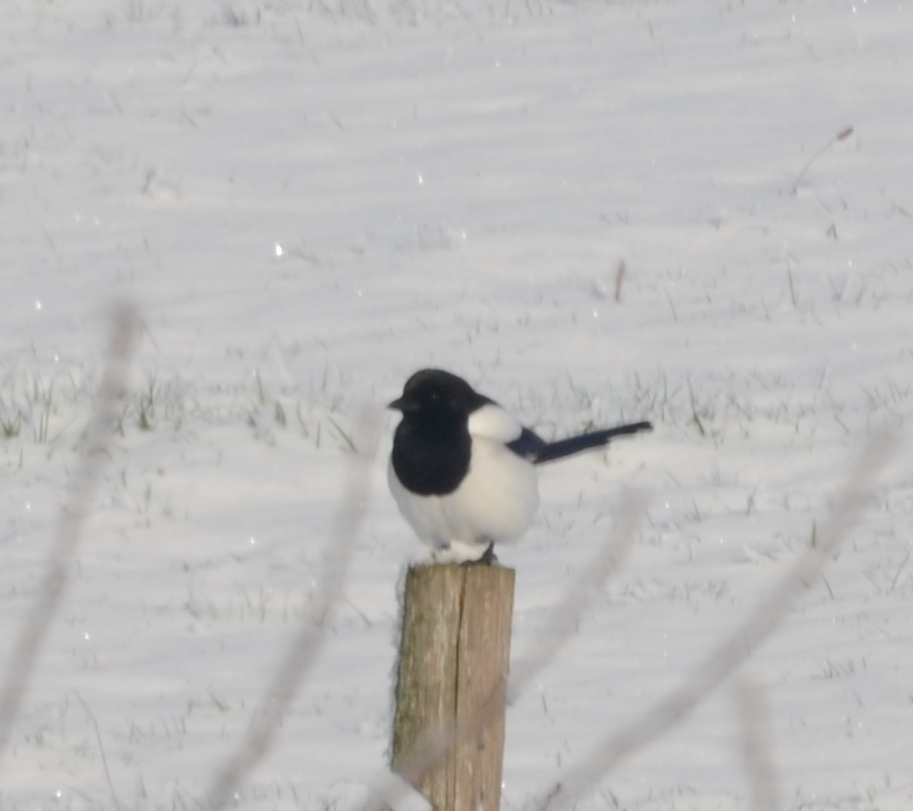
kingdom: Animalia
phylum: Chordata
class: Aves
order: Passeriformes
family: Corvidae
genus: Pica
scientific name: Pica pica
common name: Eurasian magpie
